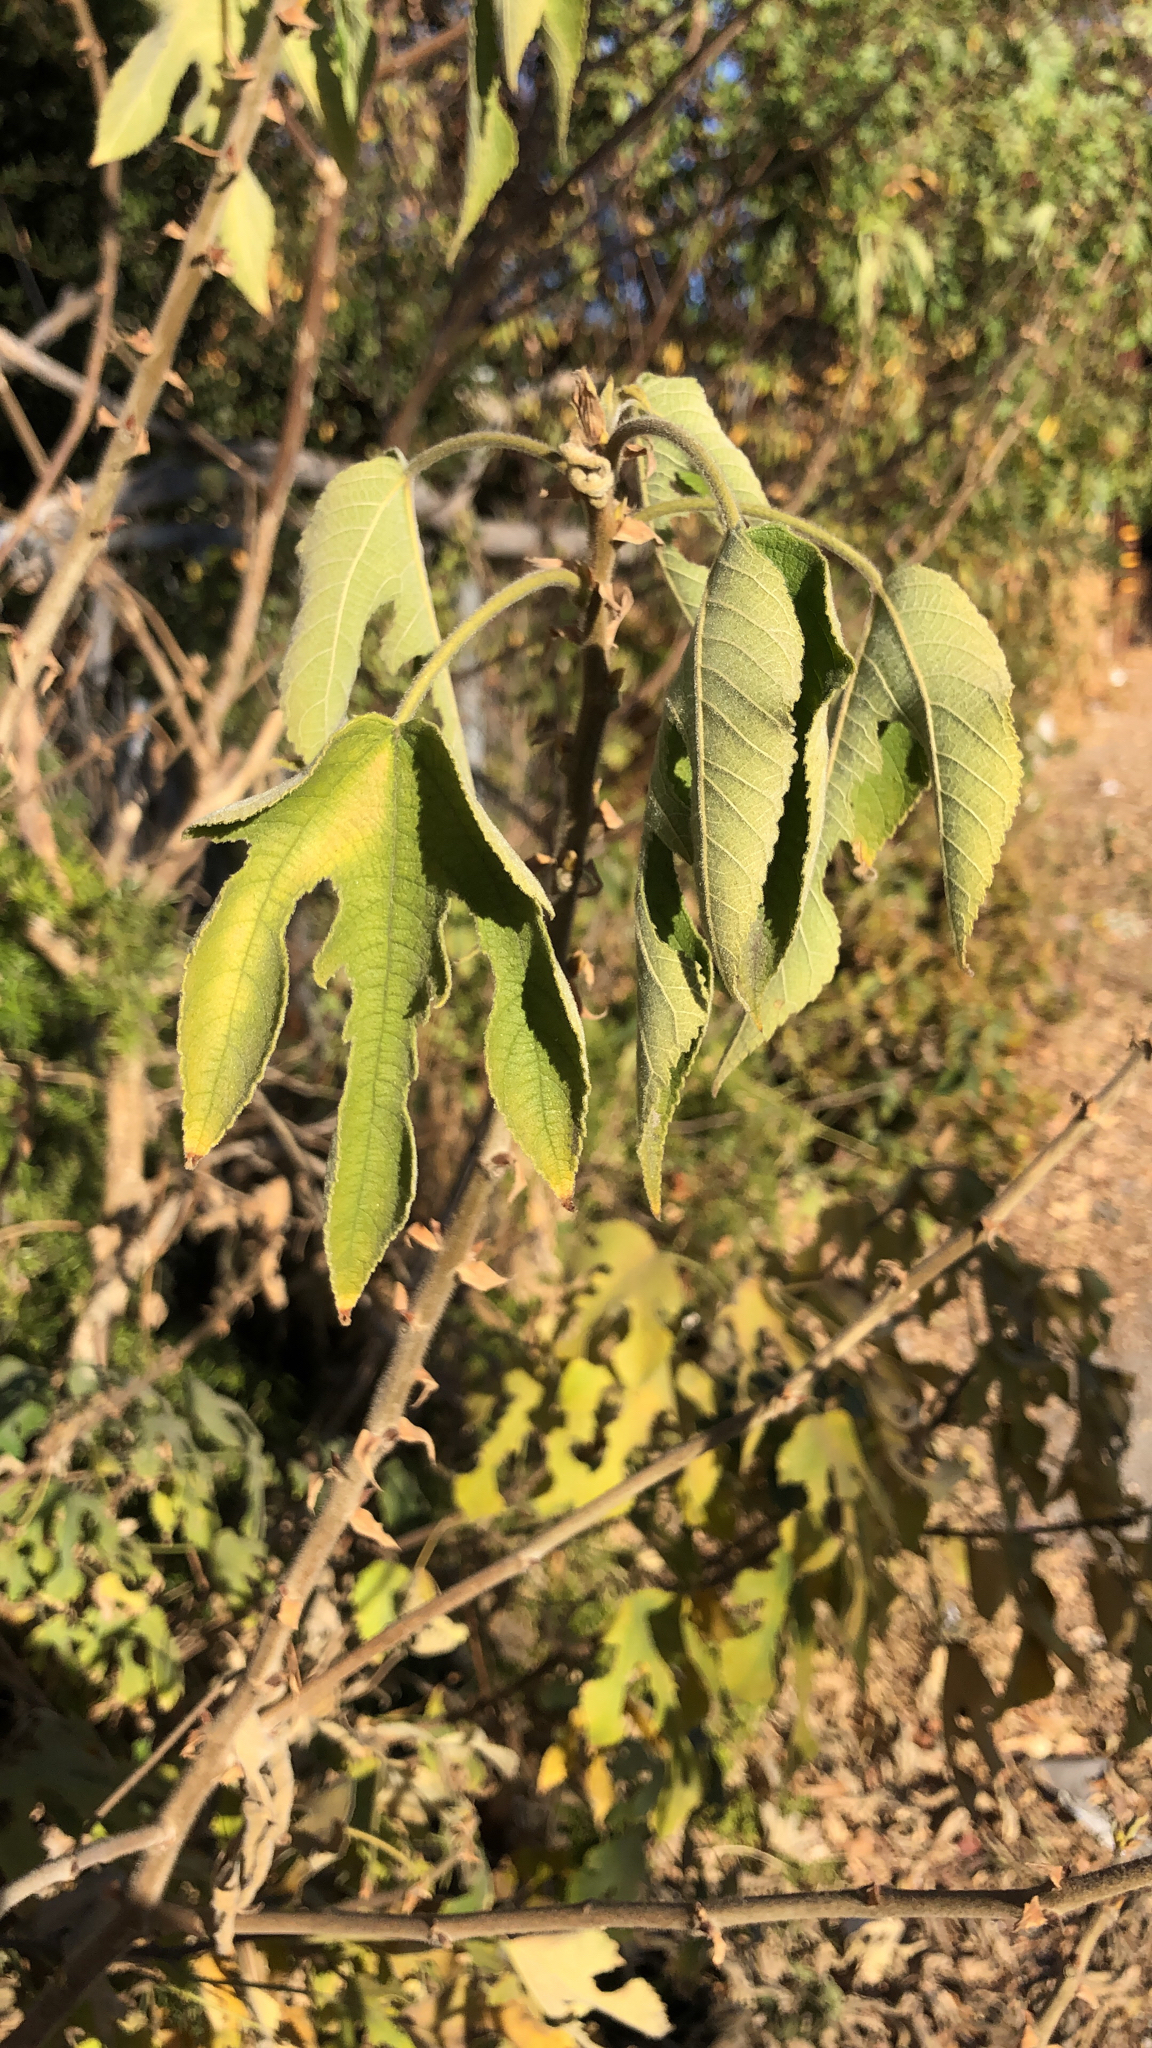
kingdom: Plantae
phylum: Tracheophyta
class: Magnoliopsida
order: Rosales
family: Moraceae
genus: Broussonetia
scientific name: Broussonetia papyrifera
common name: Paper mulberry
